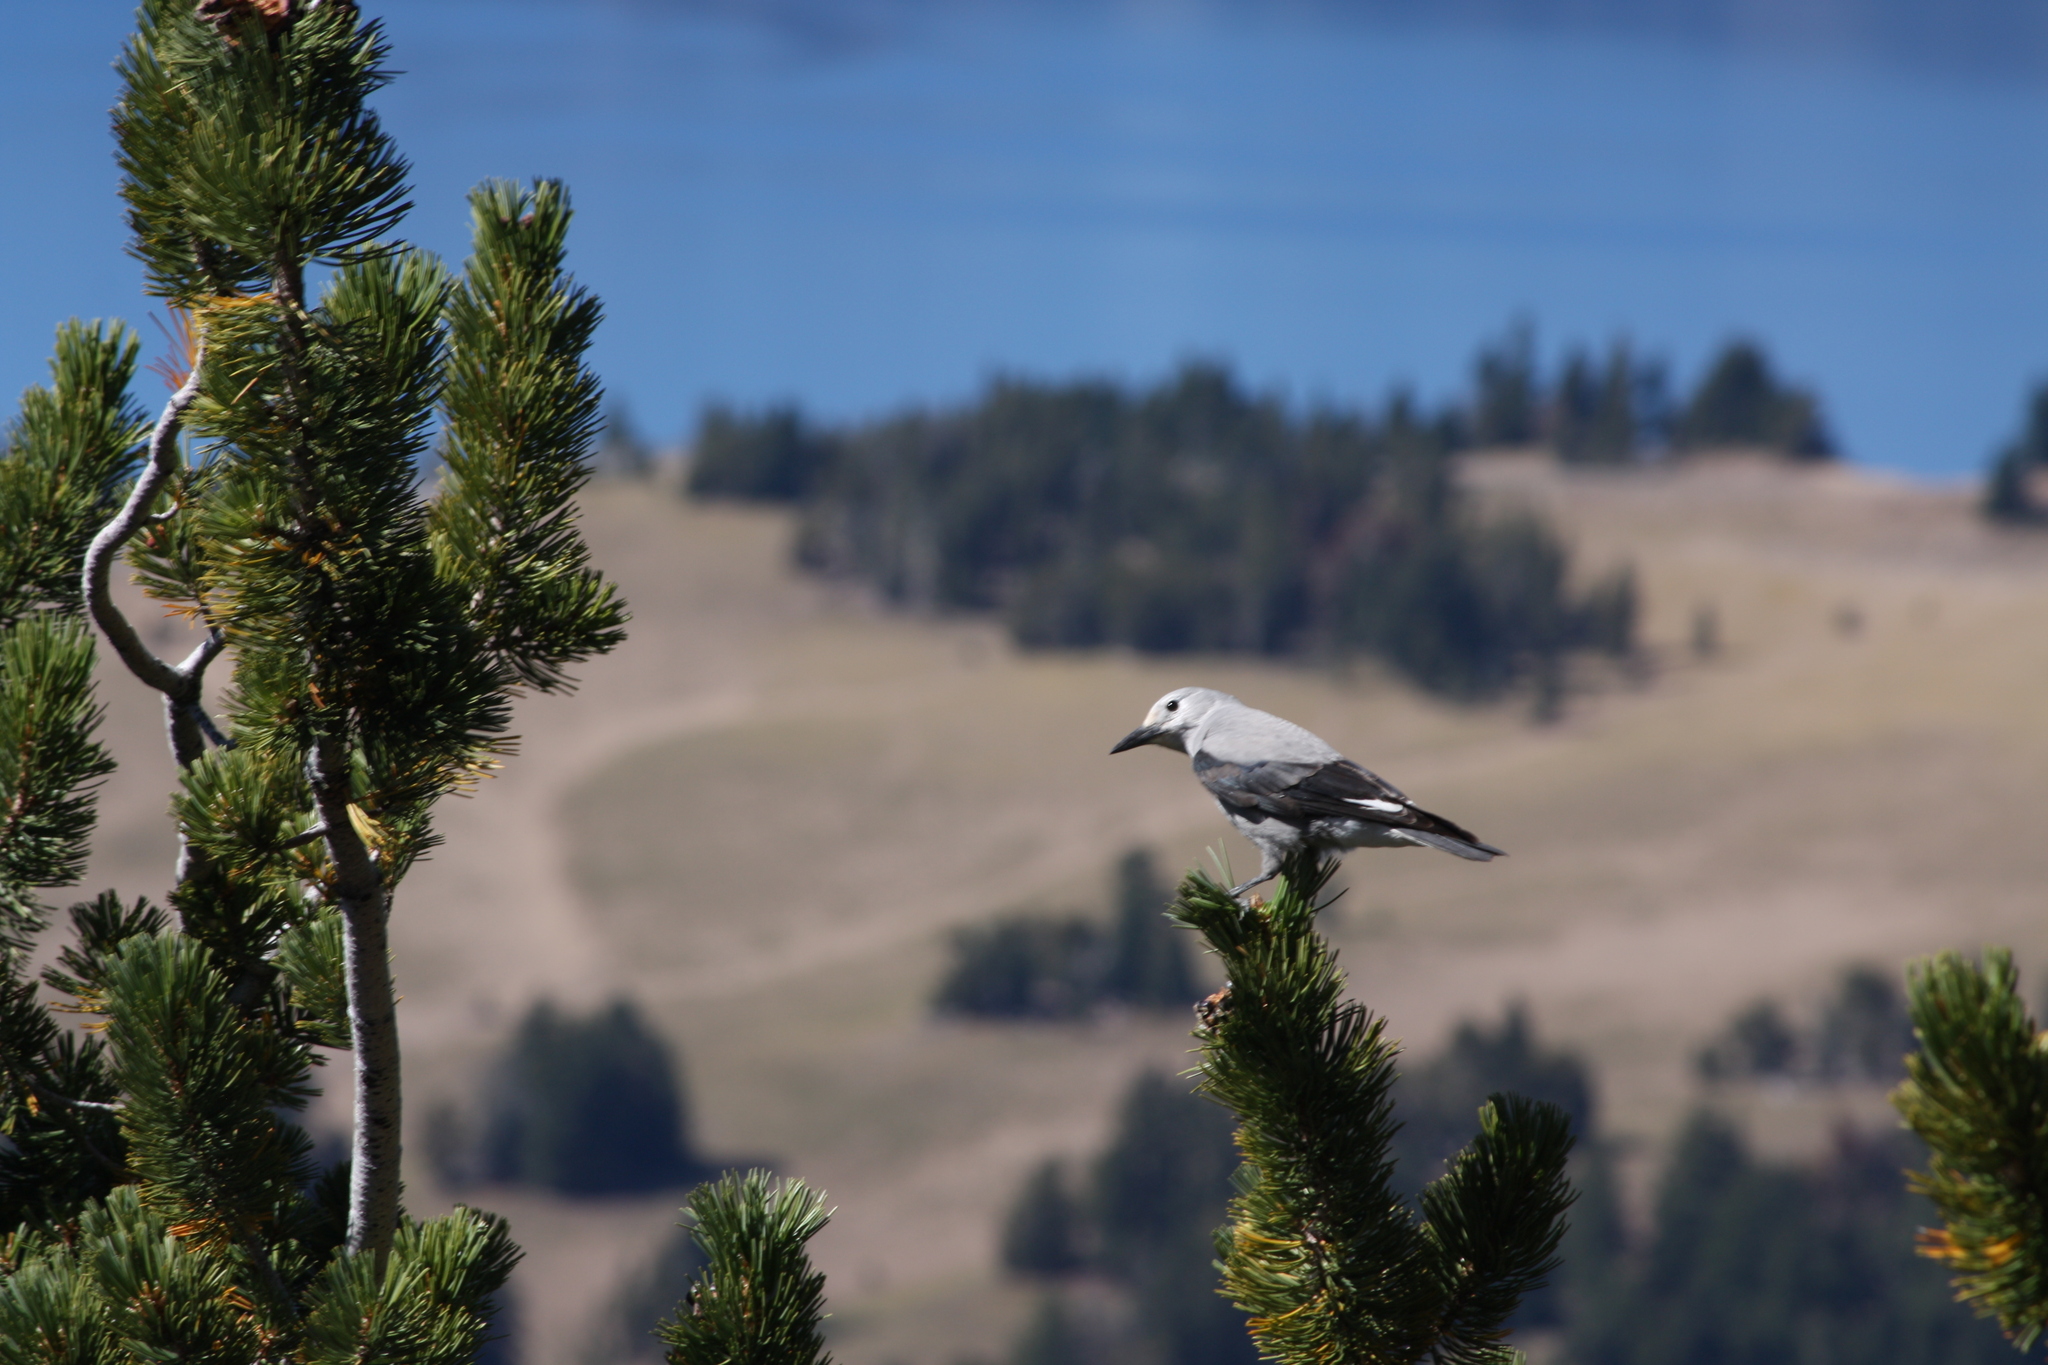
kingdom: Animalia
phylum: Chordata
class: Aves
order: Passeriformes
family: Corvidae
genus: Nucifraga
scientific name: Nucifraga columbiana
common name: Clark's nutcracker
